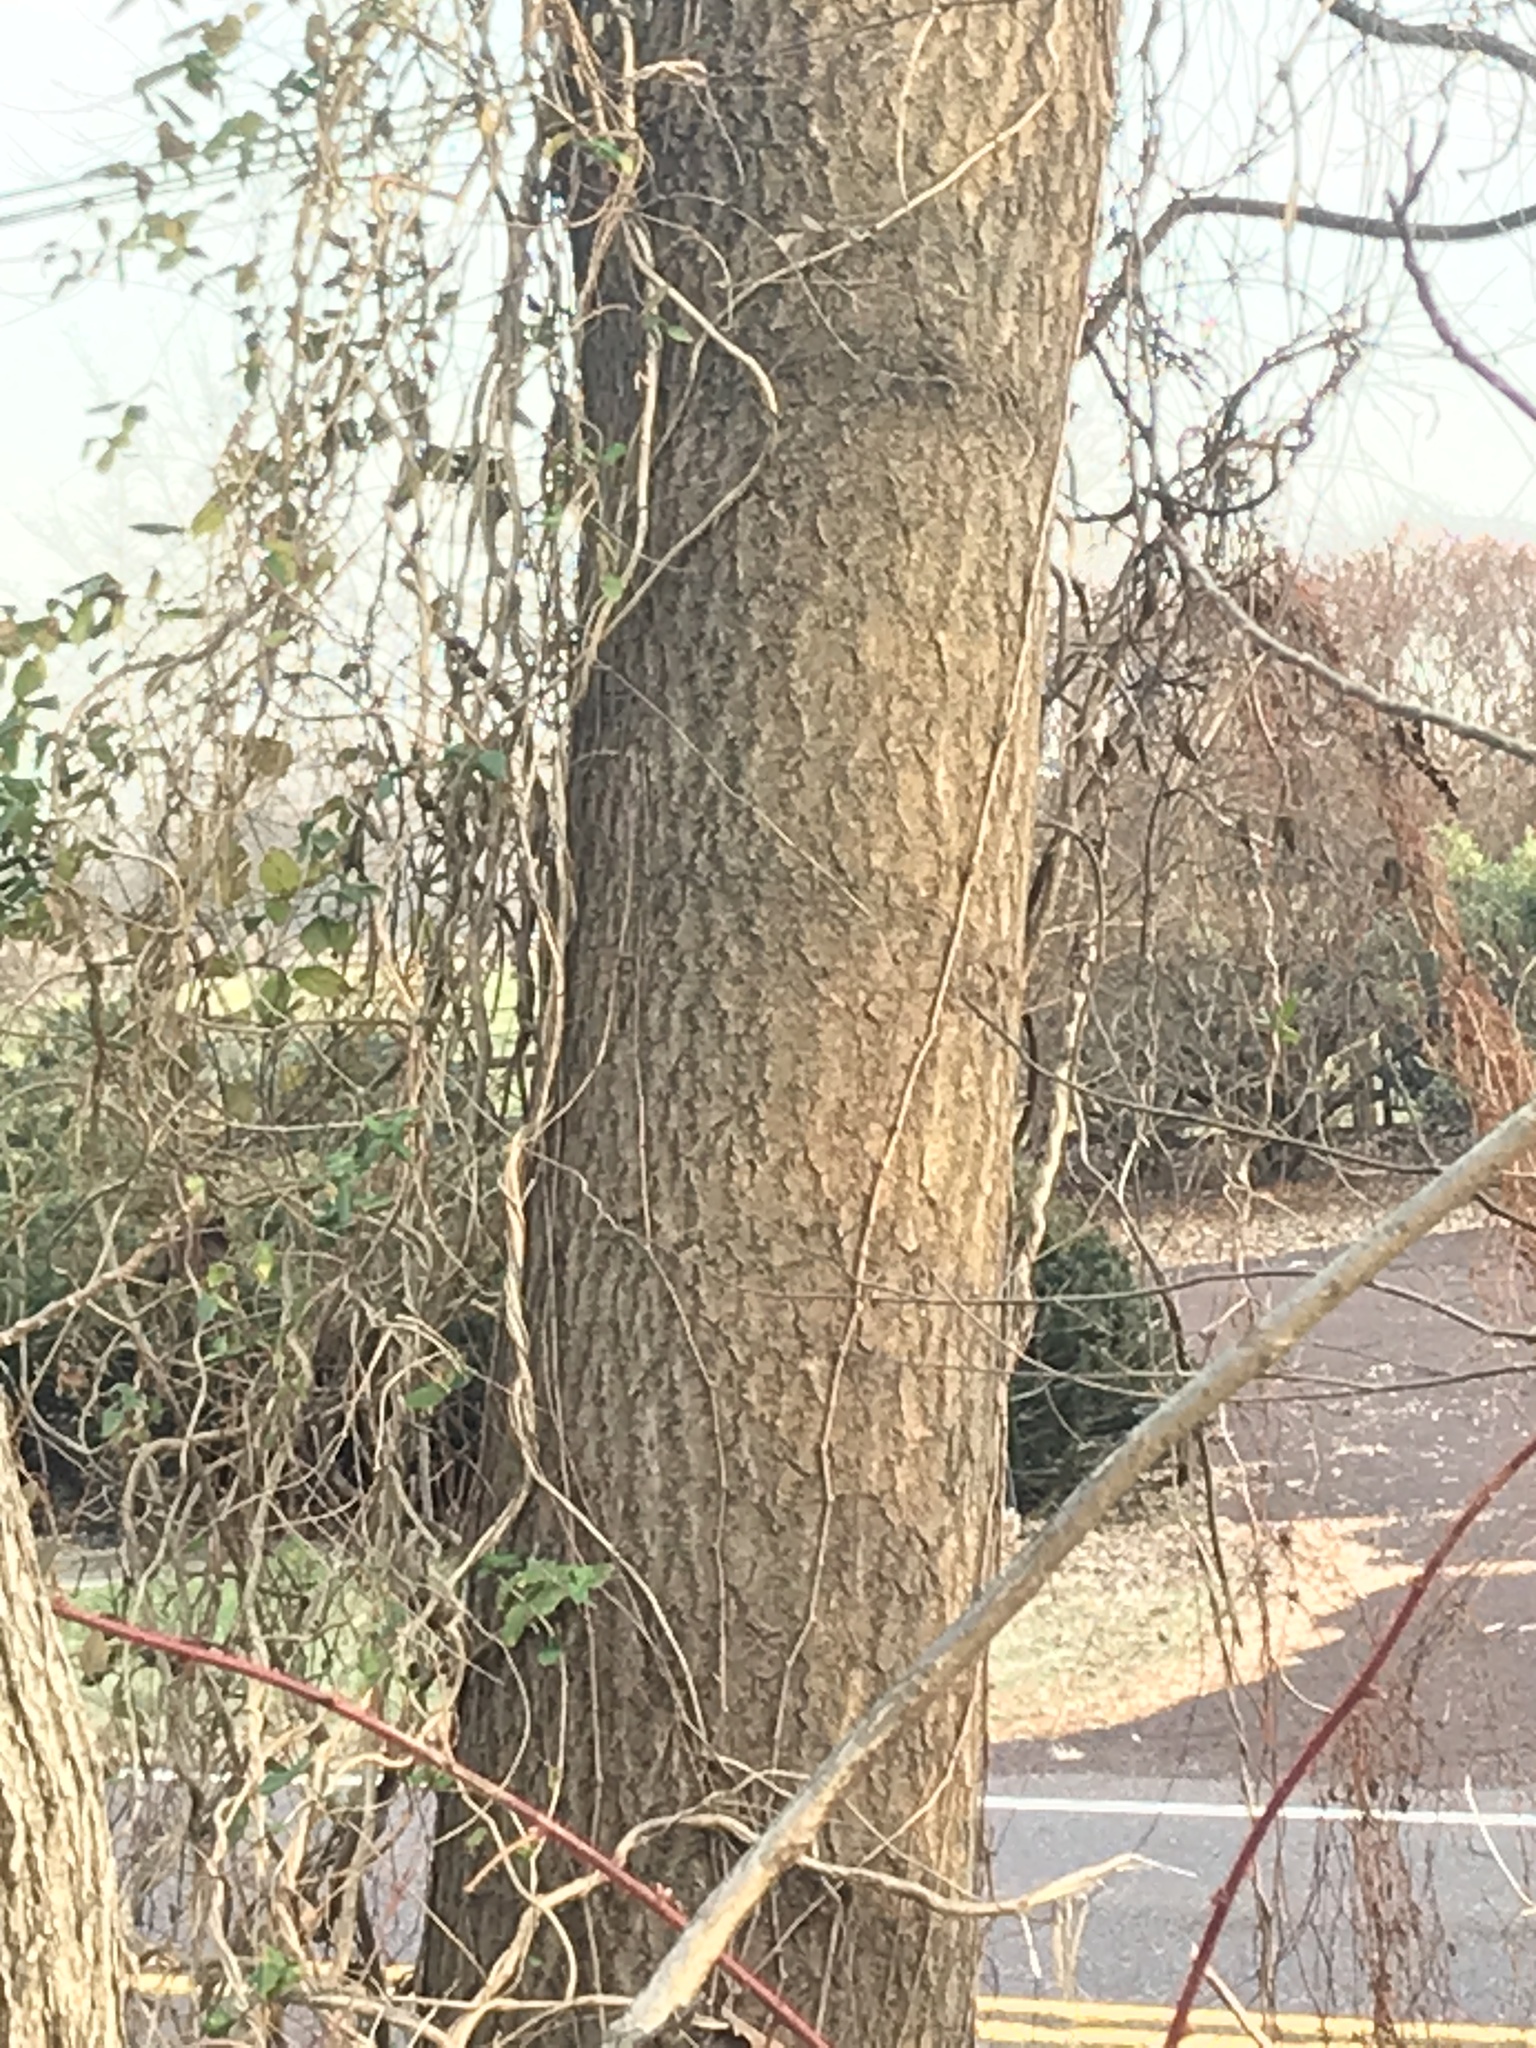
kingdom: Plantae
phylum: Tracheophyta
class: Magnoliopsida
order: Lamiales
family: Paulowniaceae
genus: Paulownia
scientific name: Paulownia tomentosa
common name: Foxglove-tree
